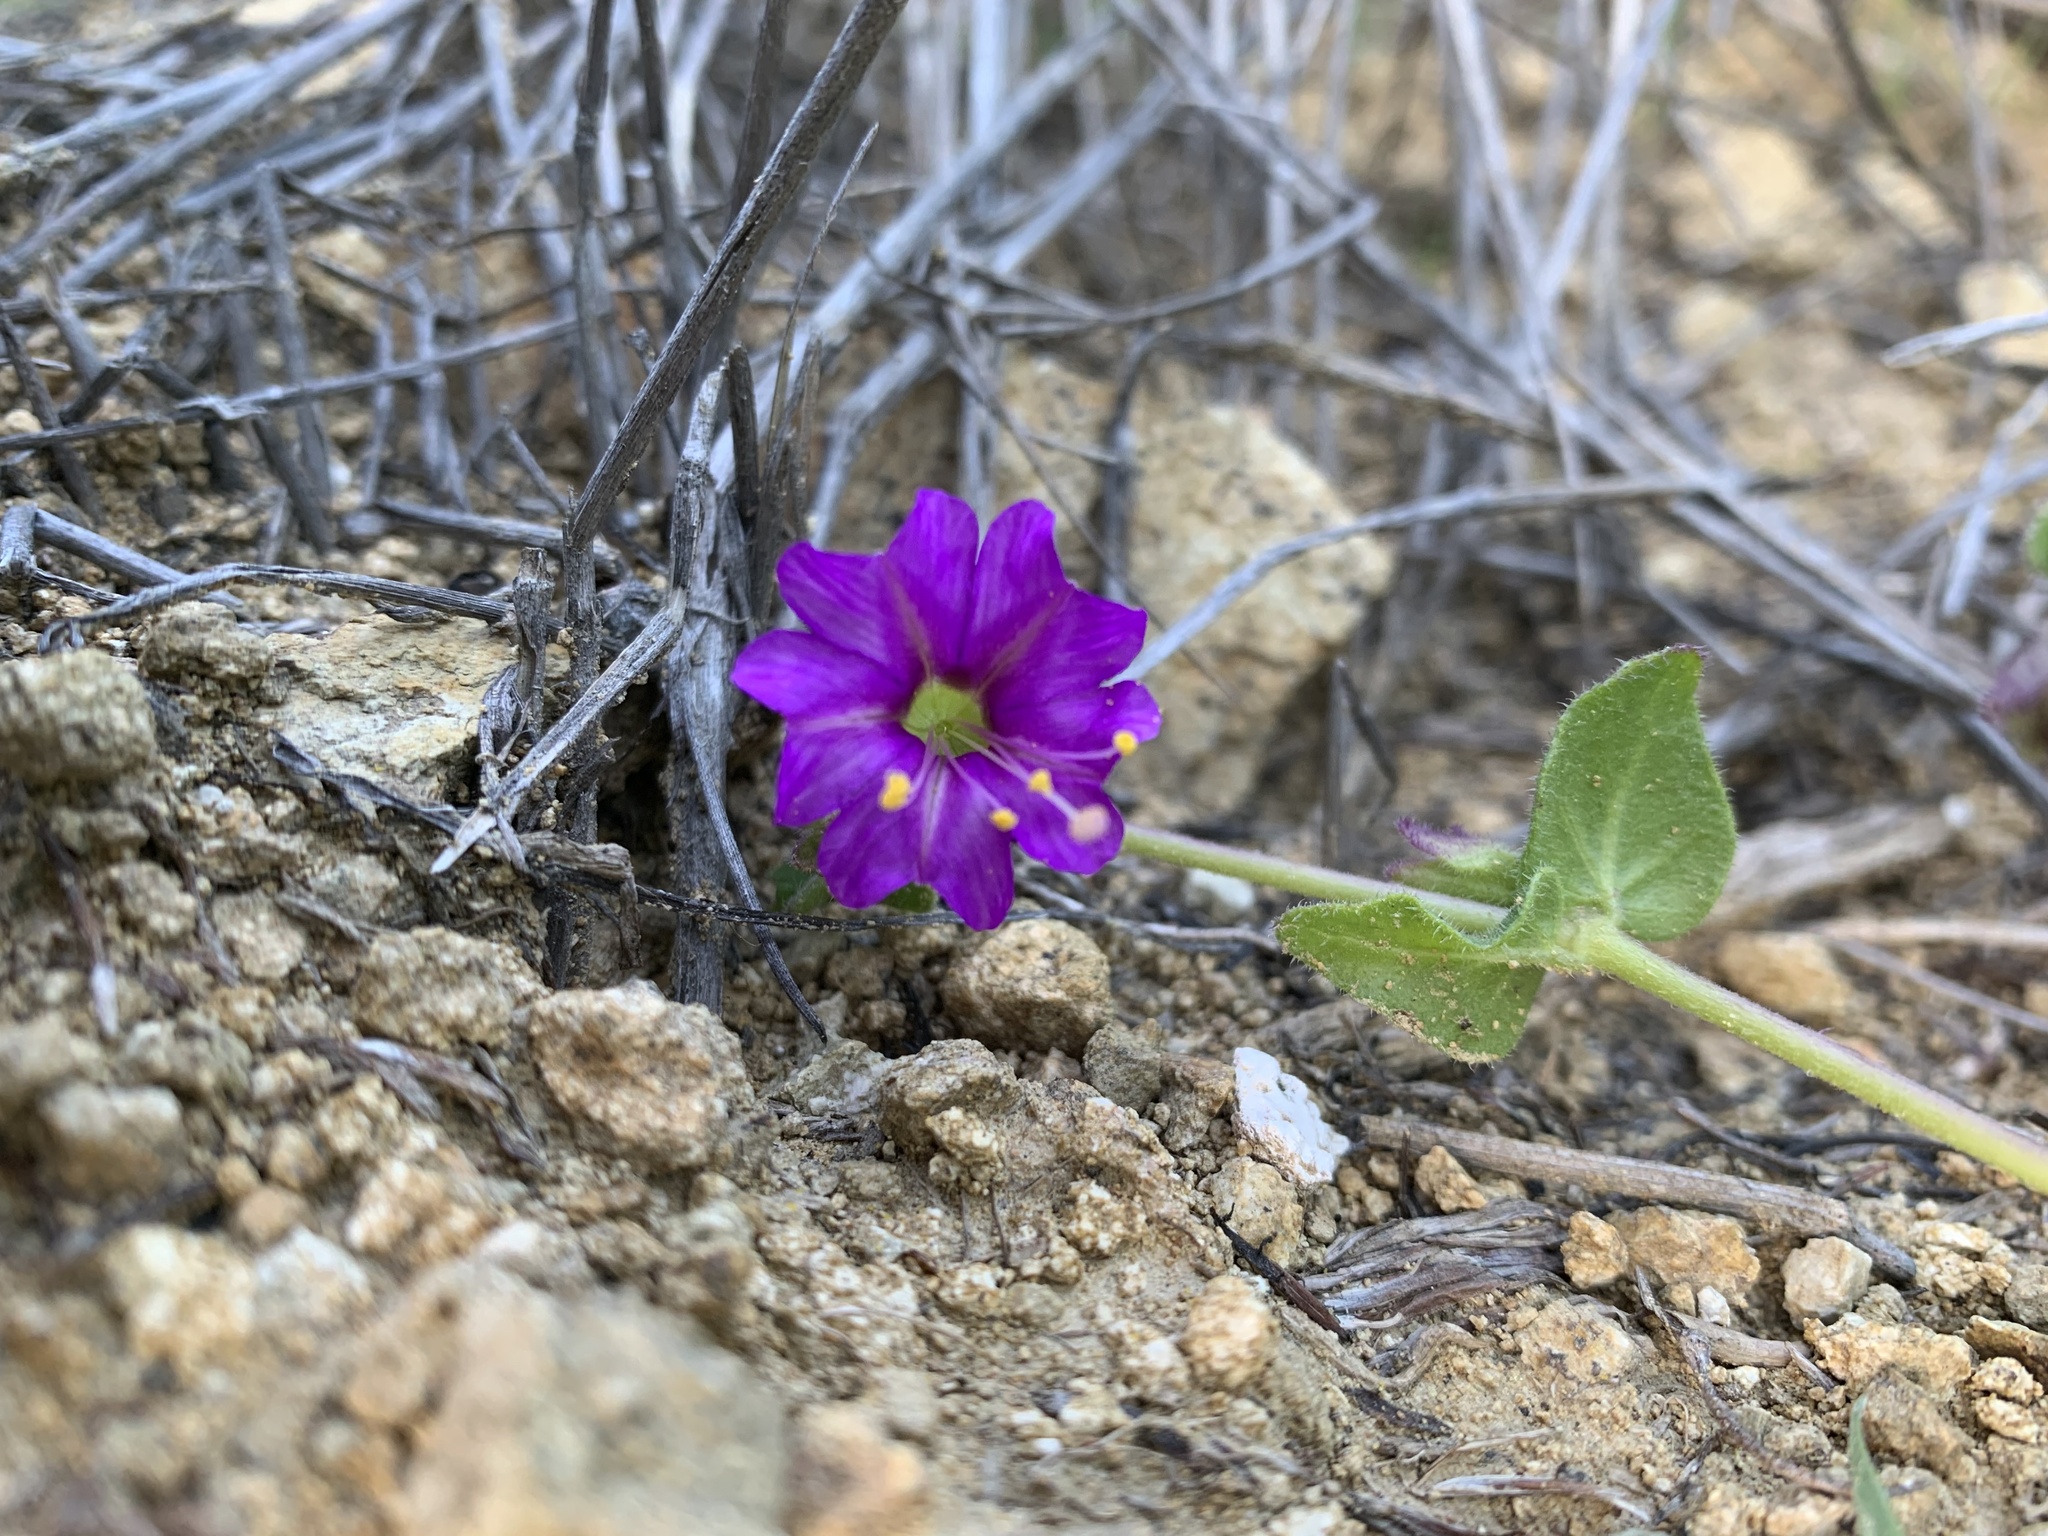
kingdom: Plantae
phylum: Tracheophyta
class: Magnoliopsida
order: Caryophyllales
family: Nyctaginaceae
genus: Mirabilis
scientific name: Mirabilis laevis
